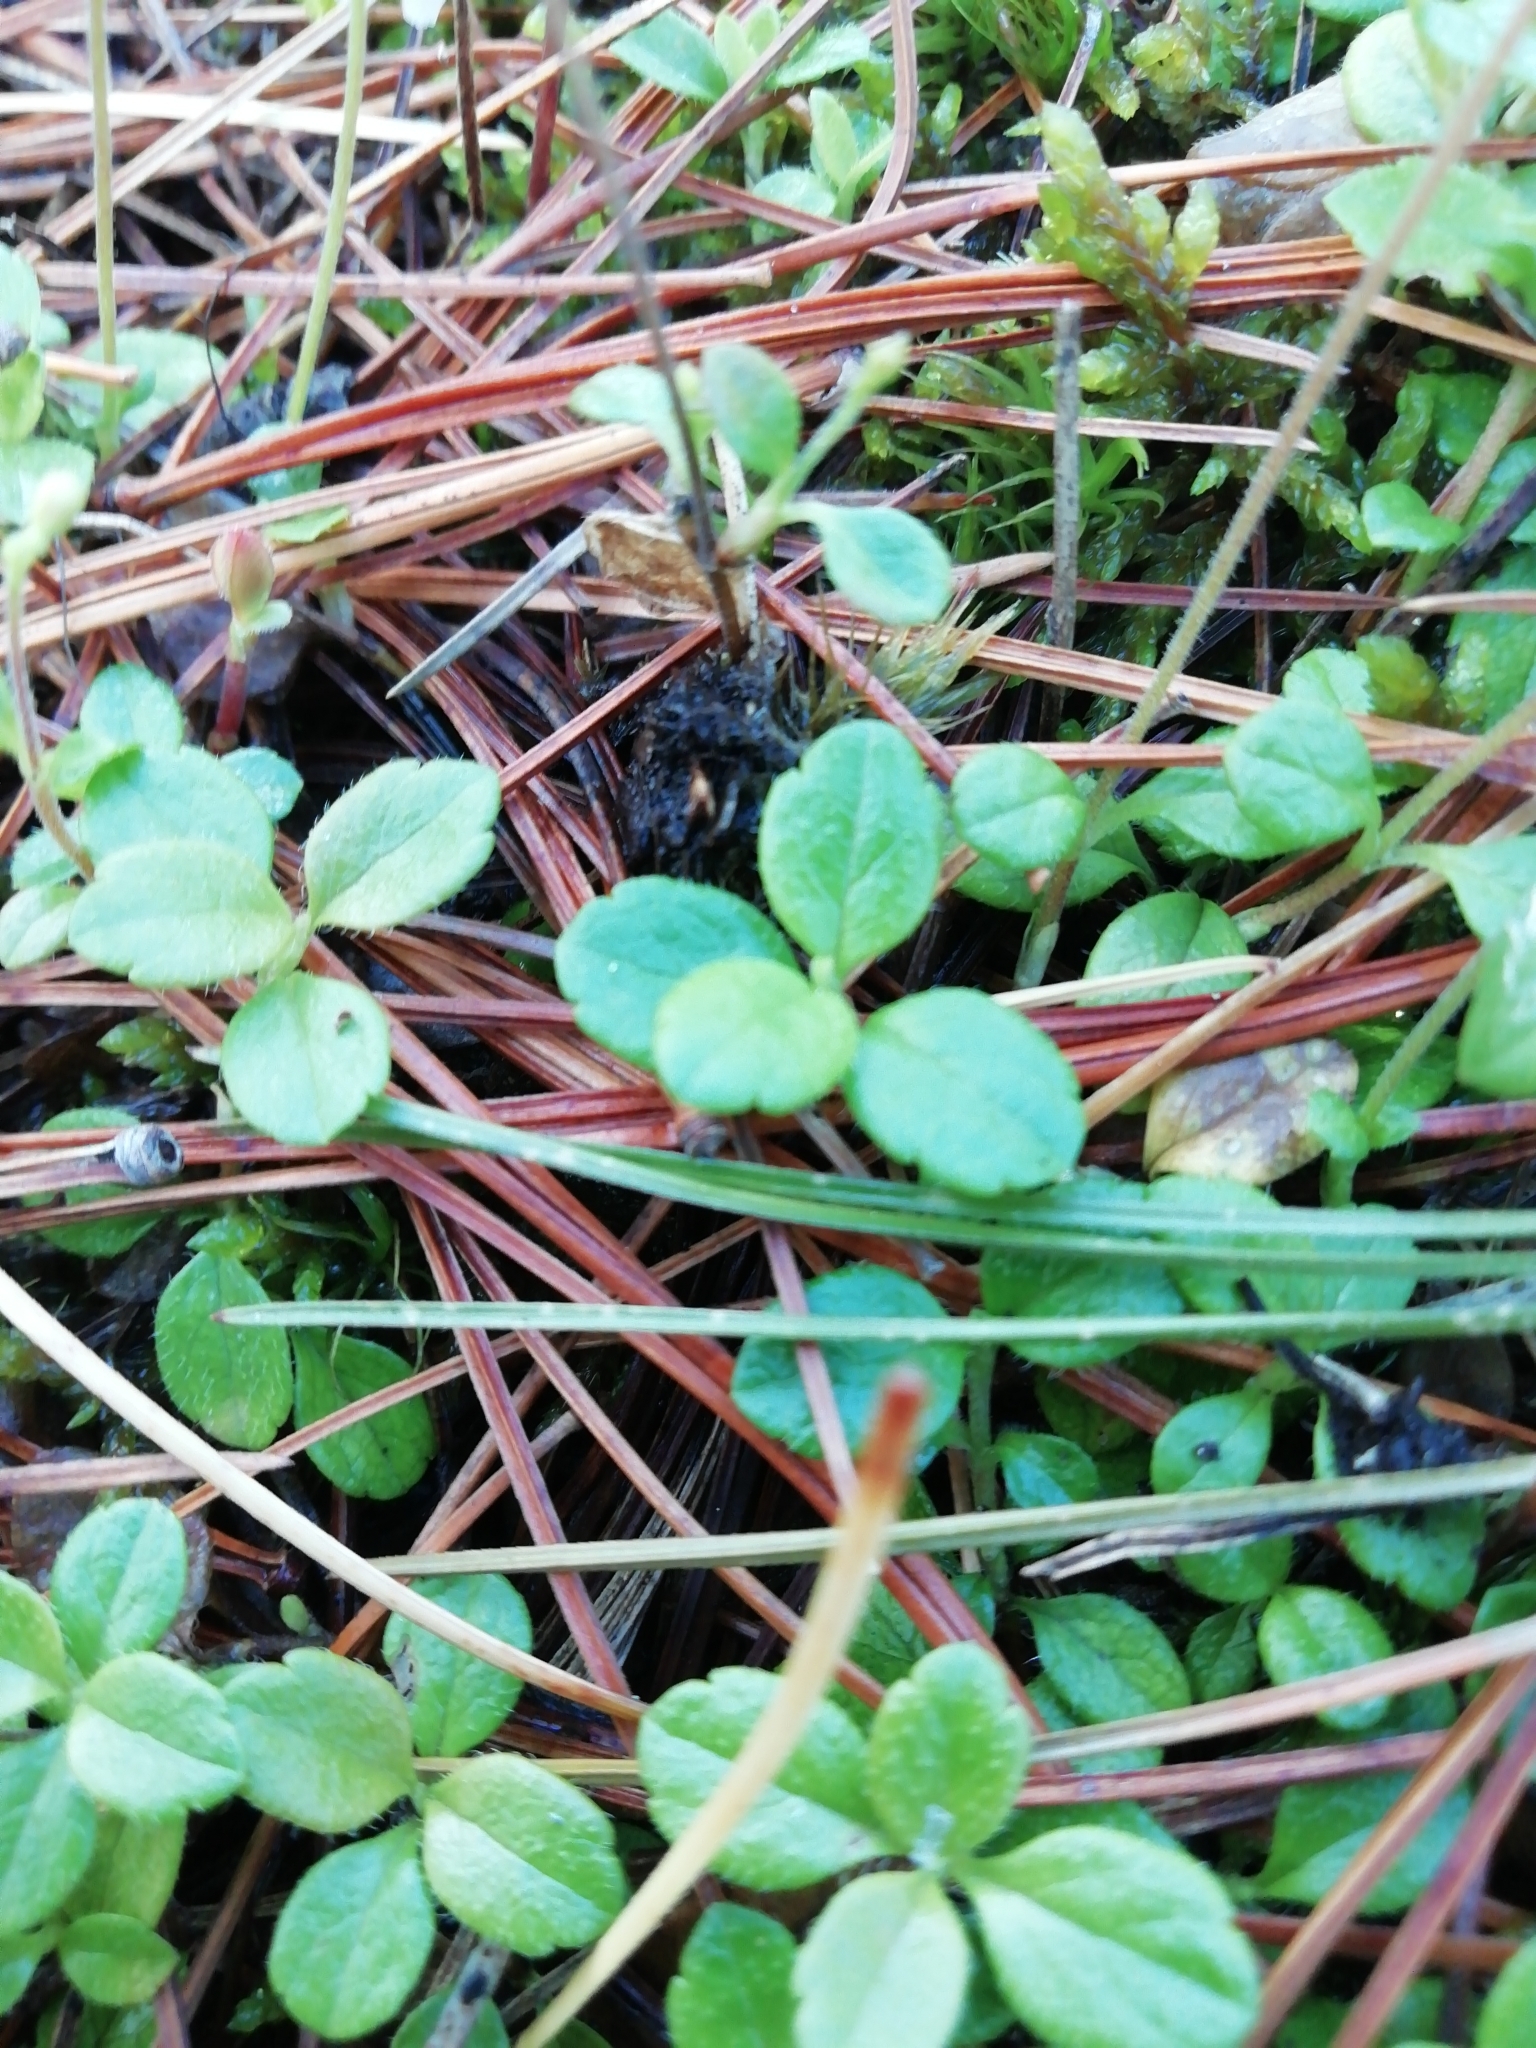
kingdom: Plantae
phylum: Tracheophyta
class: Magnoliopsida
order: Dipsacales
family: Caprifoliaceae
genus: Linnaea
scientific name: Linnaea borealis
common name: Twinflower
